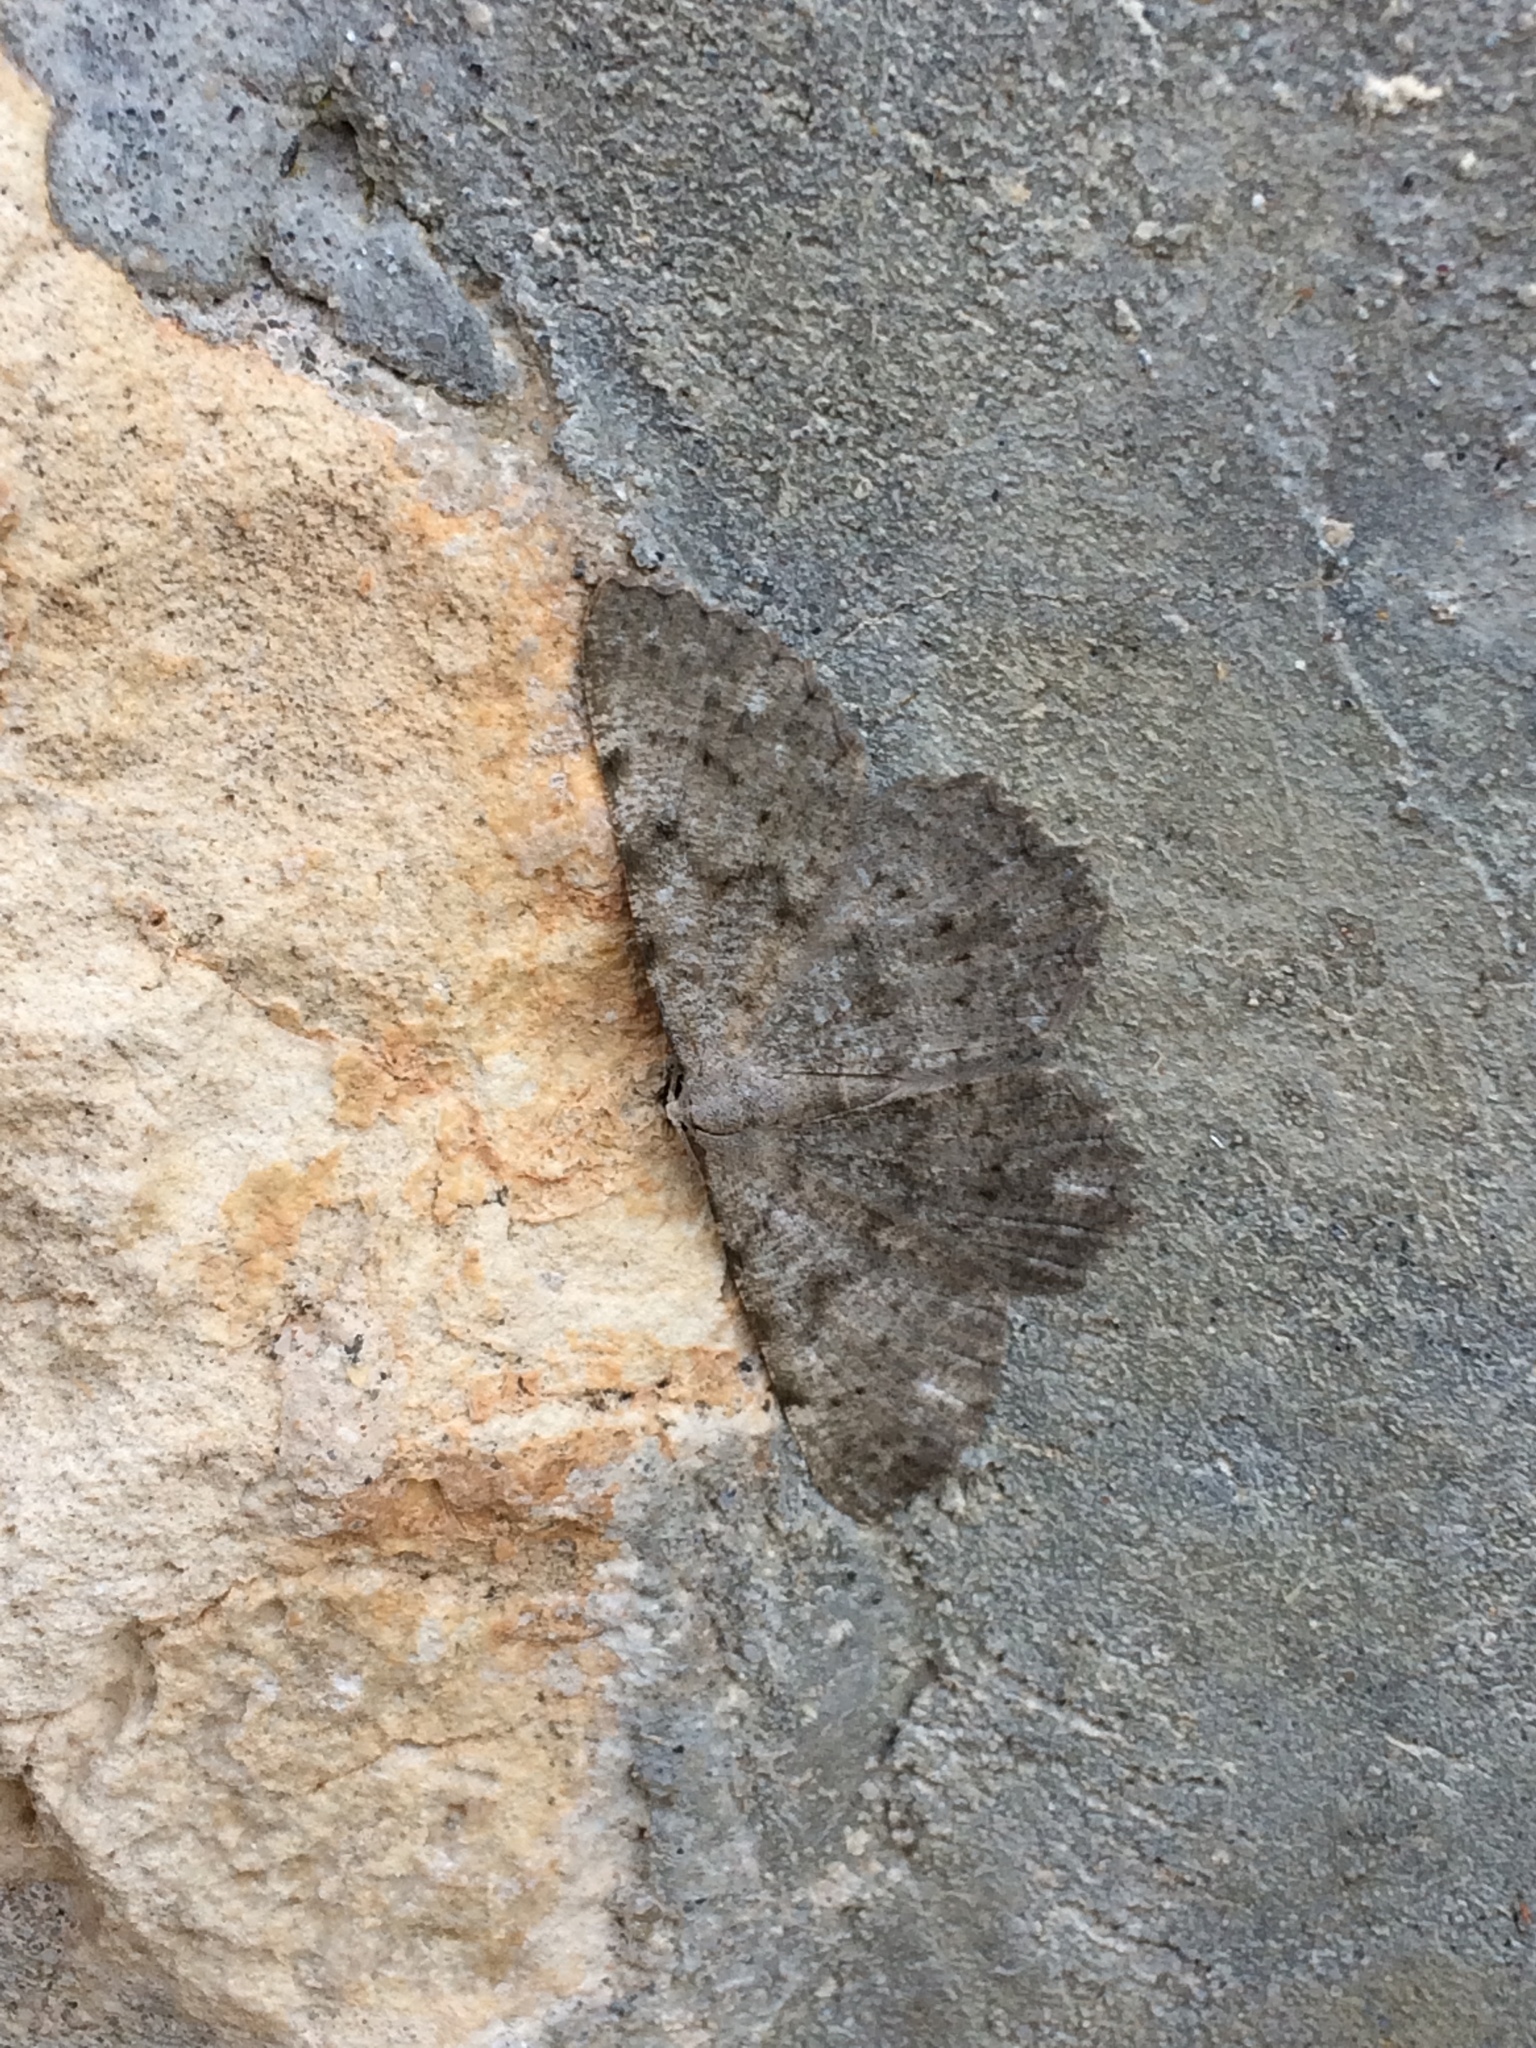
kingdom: Animalia
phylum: Arthropoda
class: Insecta
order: Lepidoptera
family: Geometridae
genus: Gnophos
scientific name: Gnophos sartata
